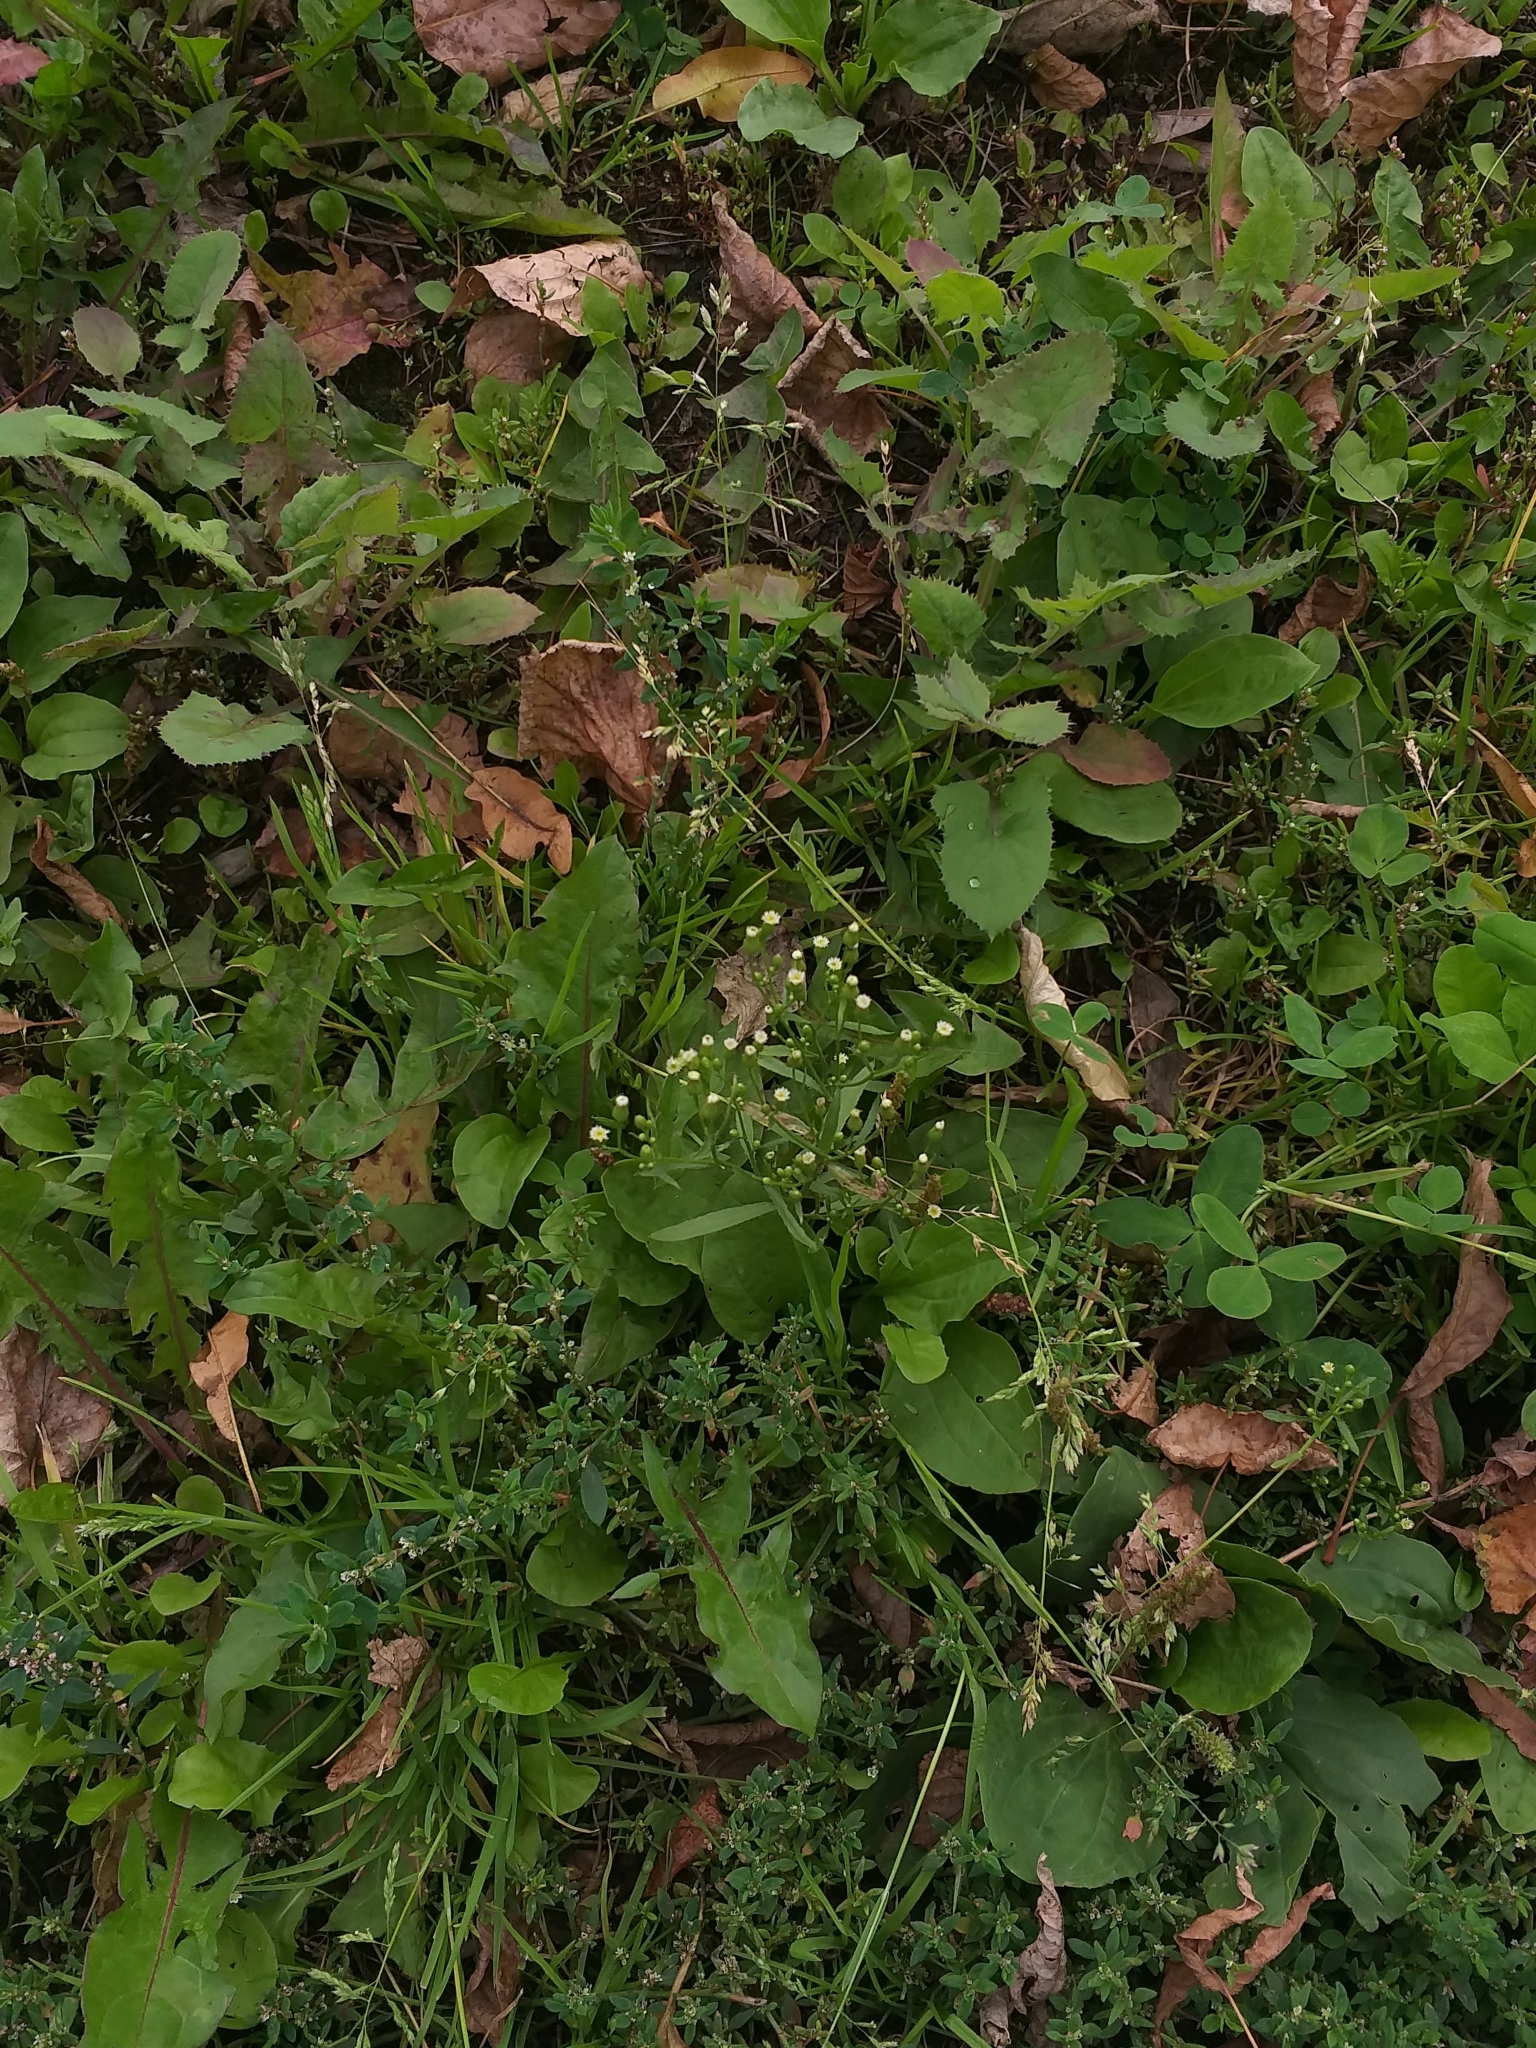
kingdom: Plantae
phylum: Tracheophyta
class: Magnoliopsida
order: Asterales
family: Asteraceae
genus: Erigeron
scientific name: Erigeron canadensis
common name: Canadian fleabane
